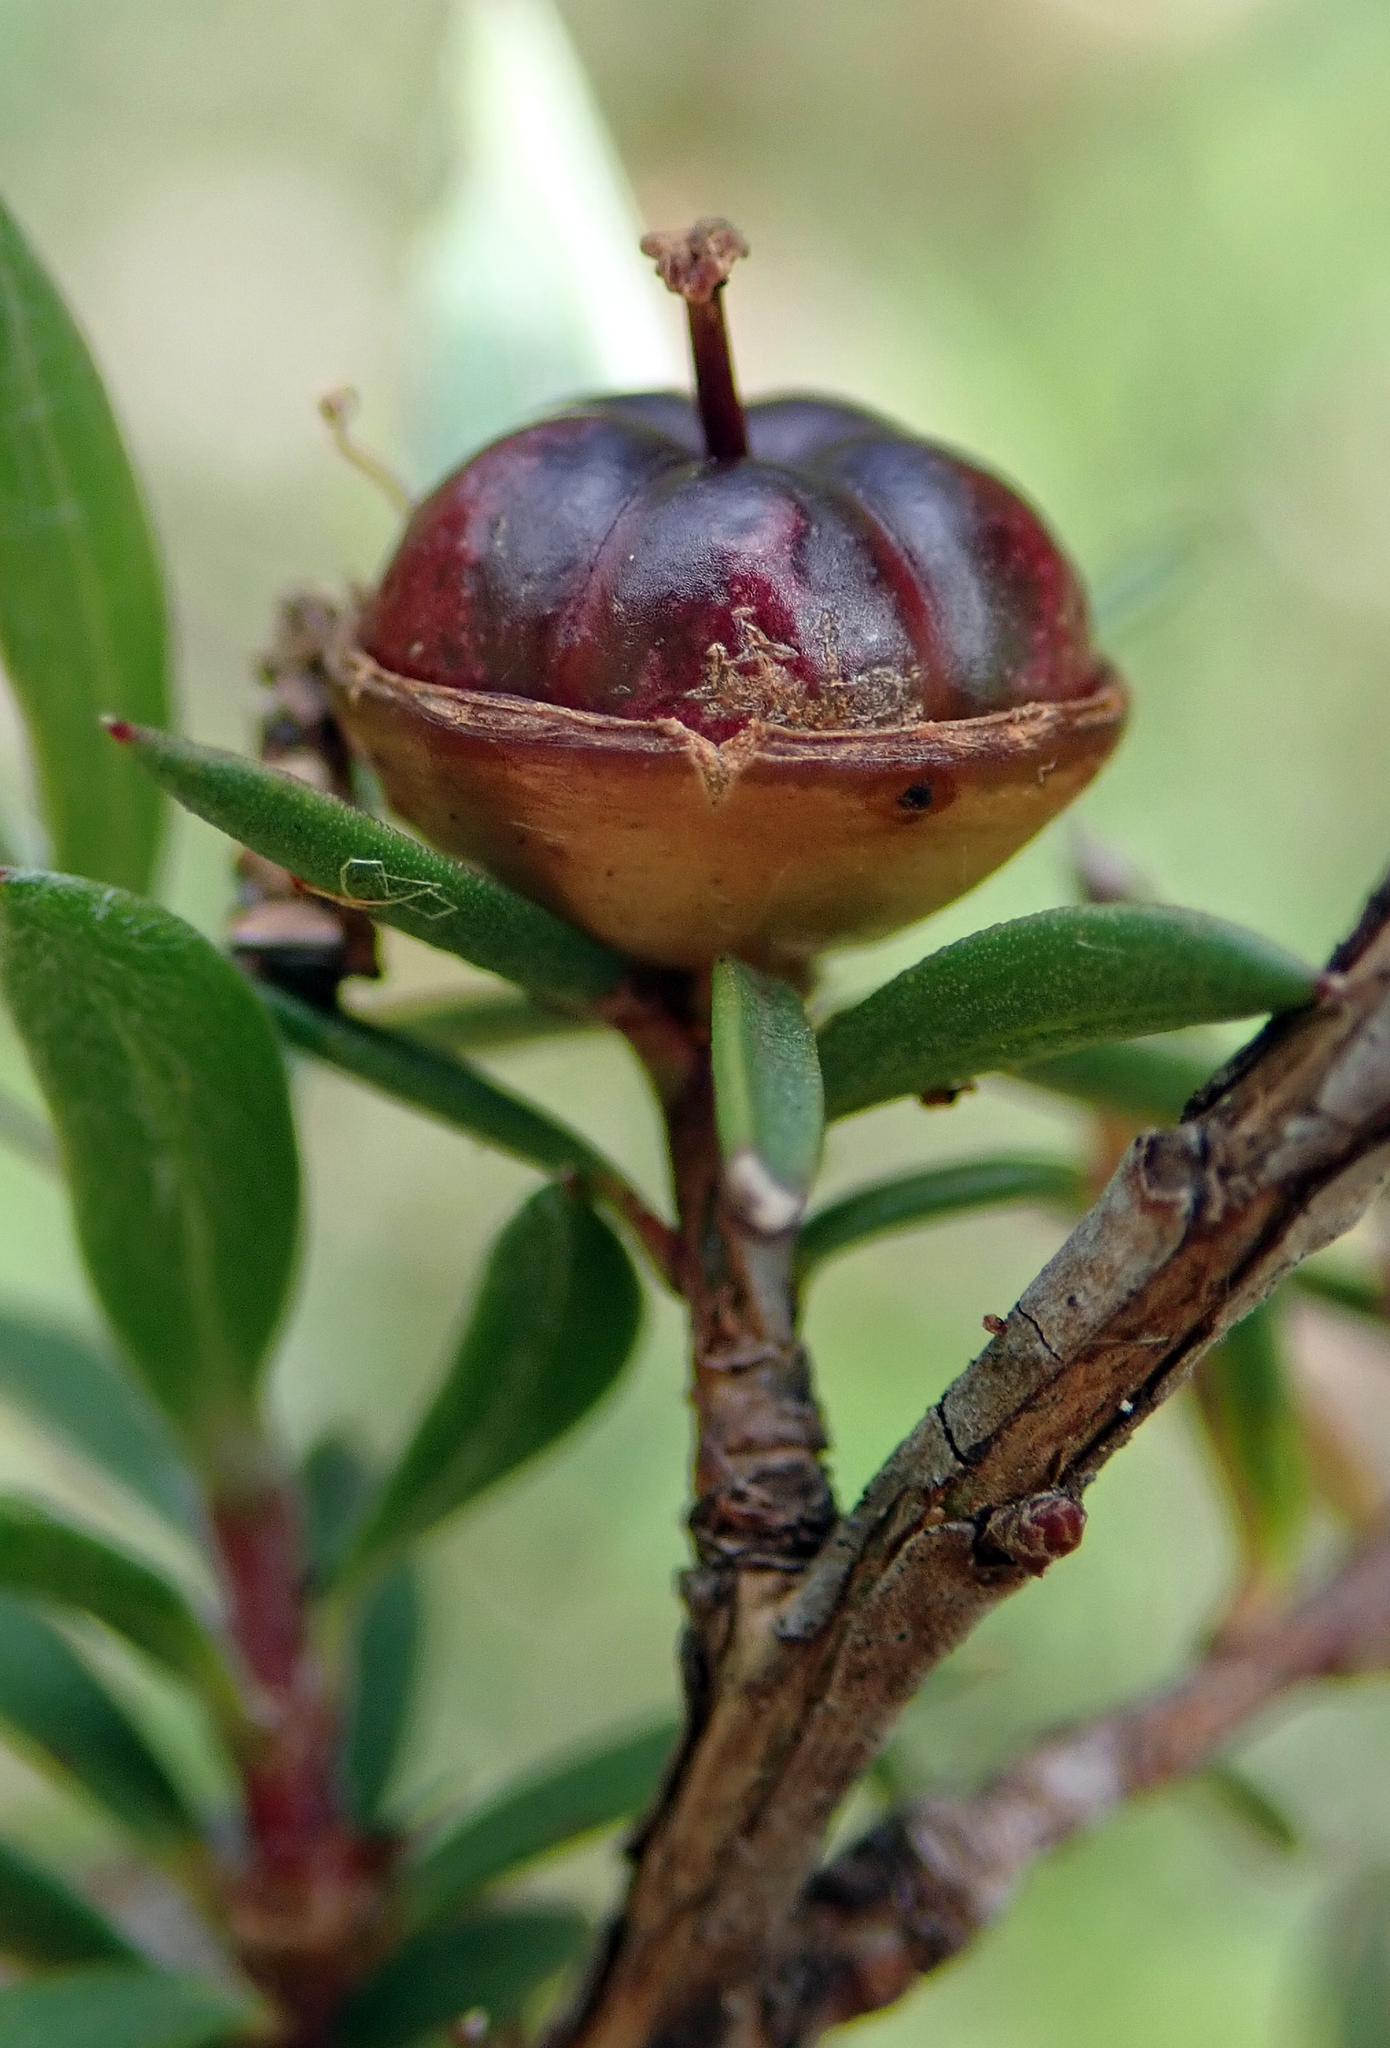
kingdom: Plantae
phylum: Tracheophyta
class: Magnoliopsida
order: Myrtales
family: Myrtaceae
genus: Leptospermum
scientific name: Leptospermum scoparium
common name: Broom tea-tree
